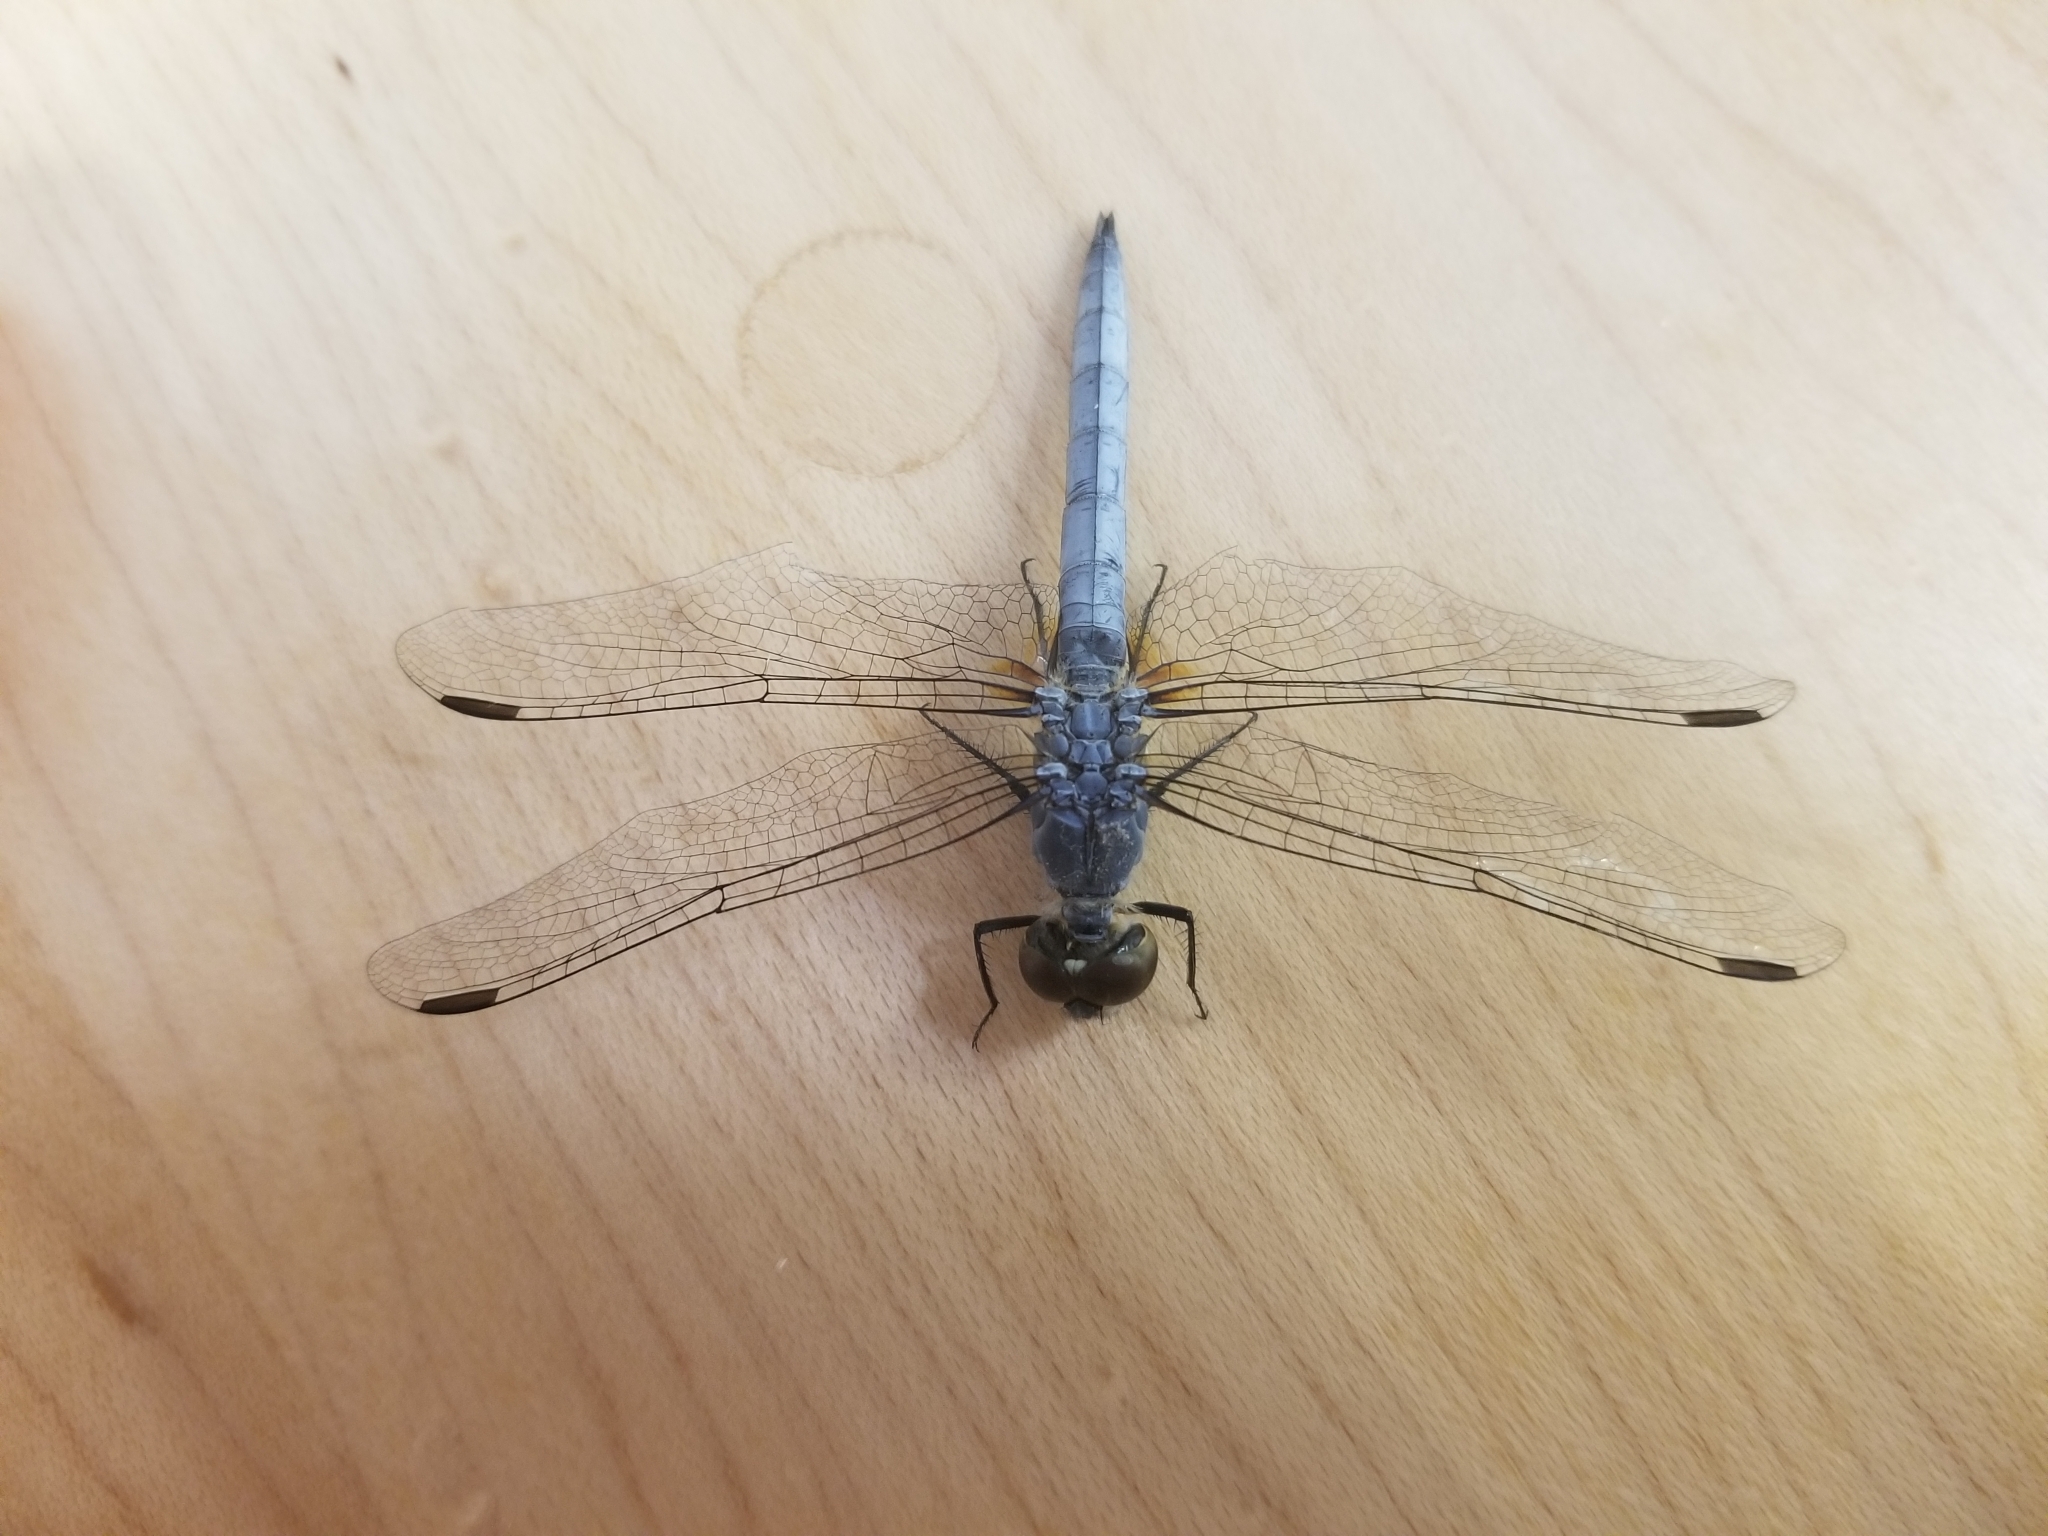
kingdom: Animalia
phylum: Arthropoda
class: Insecta
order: Odonata
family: Libellulidae
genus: Pachydiplax
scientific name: Pachydiplax longipennis
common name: Blue dasher
